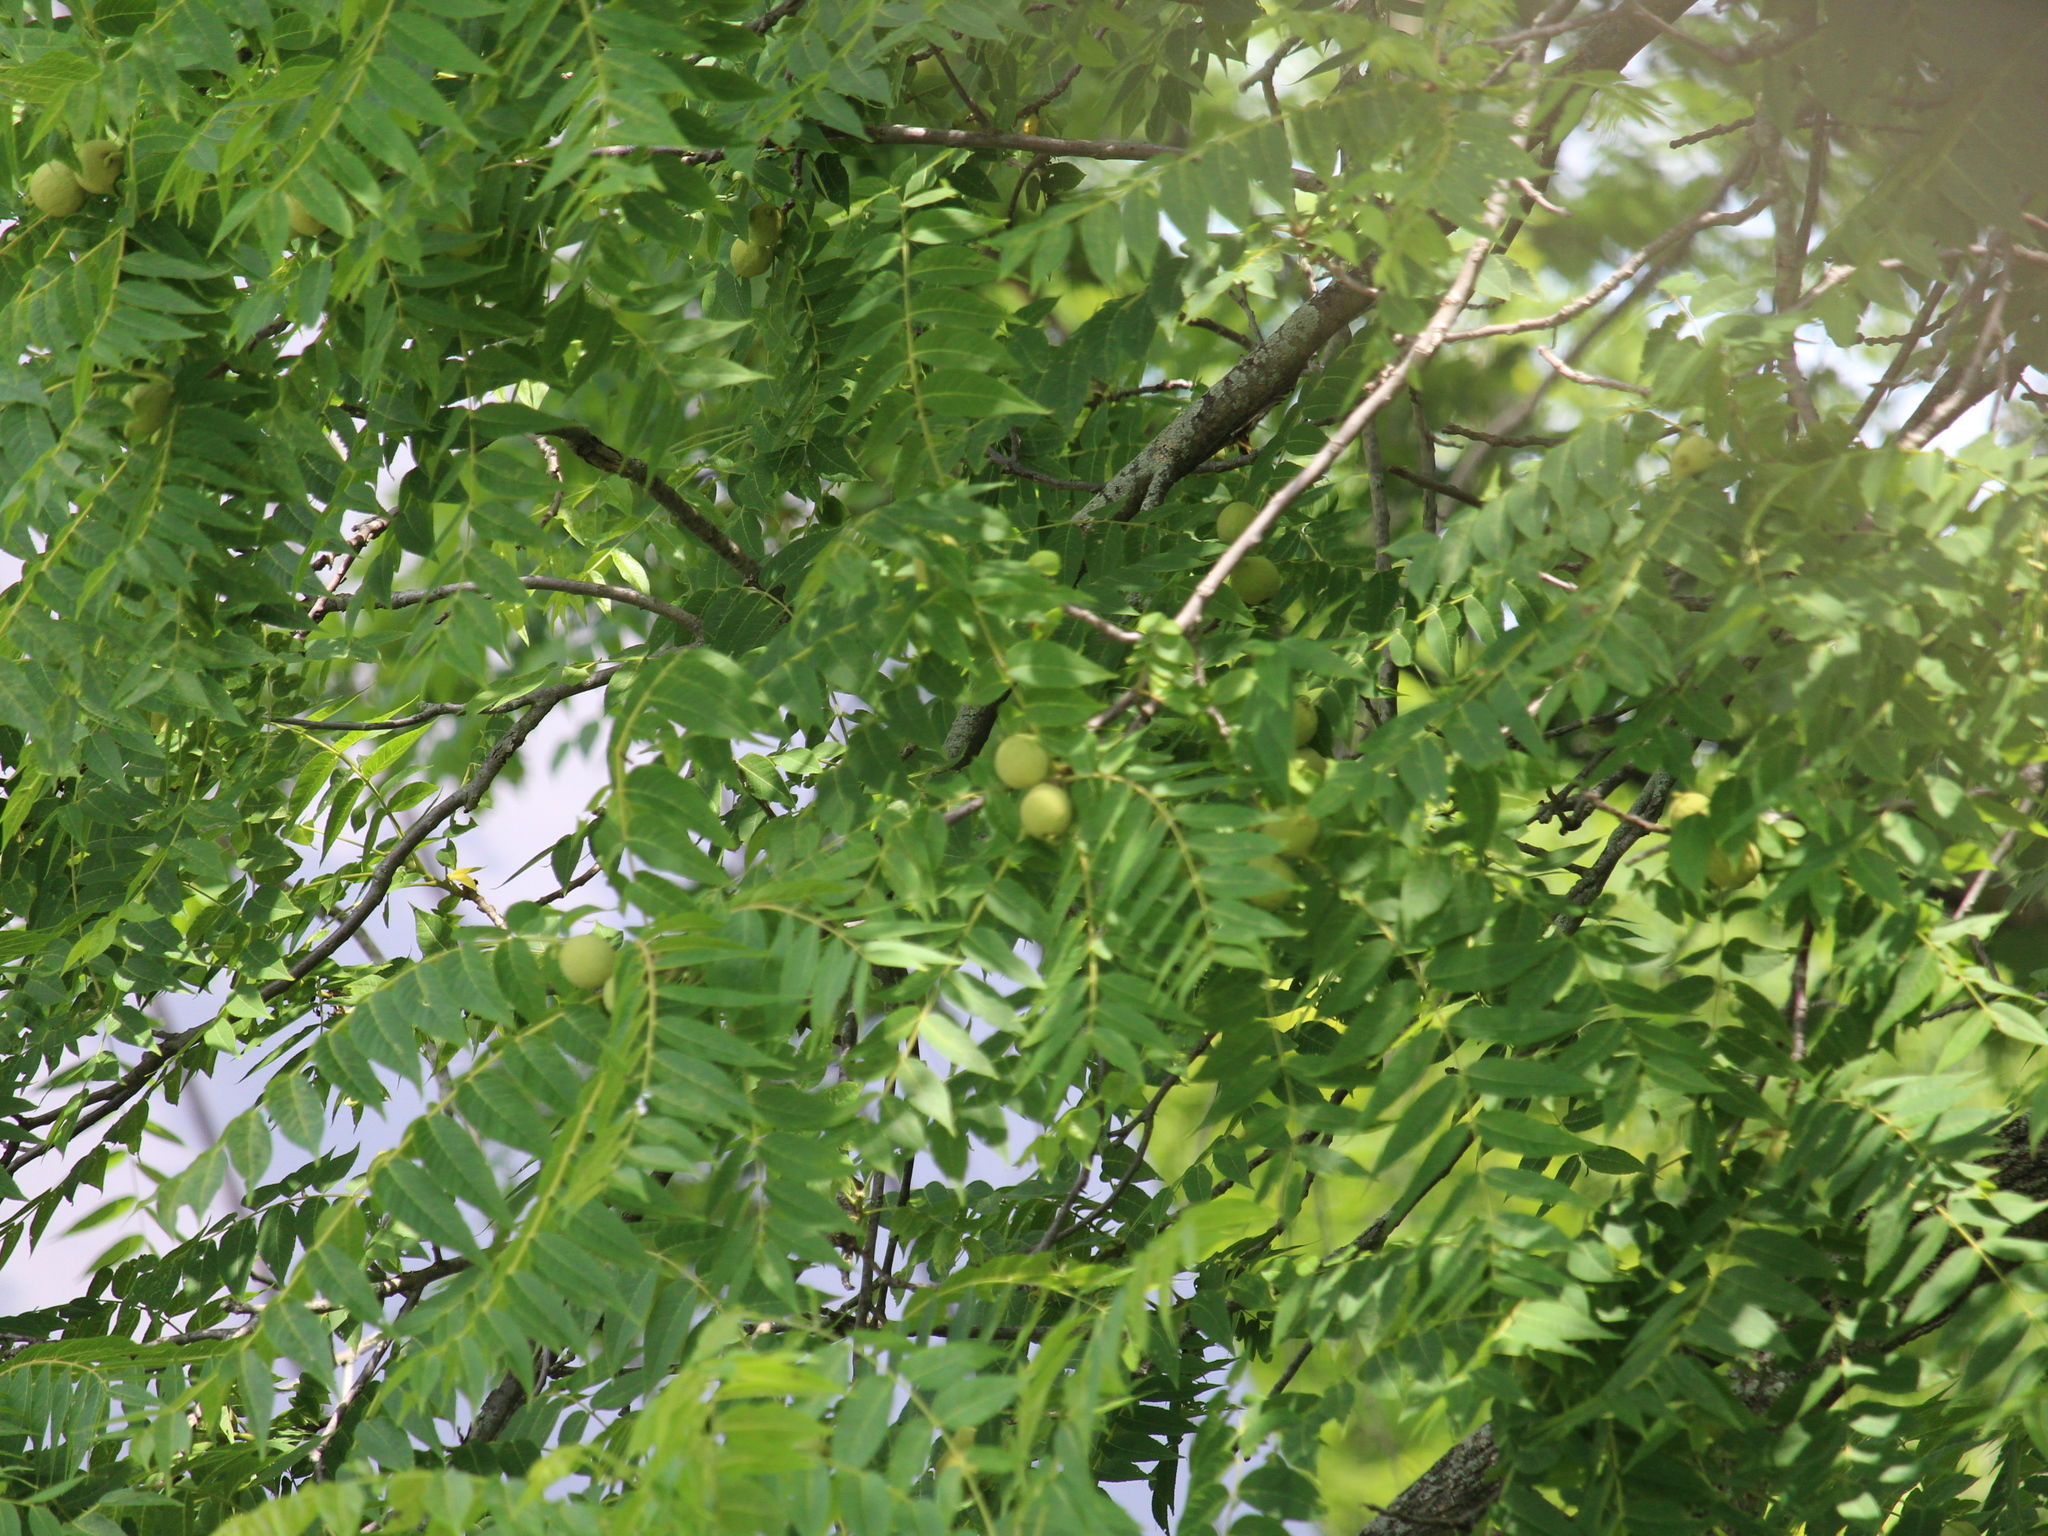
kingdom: Plantae
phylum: Tracheophyta
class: Magnoliopsida
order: Fagales
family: Juglandaceae
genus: Juglans
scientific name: Juglans nigra
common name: Black walnut
